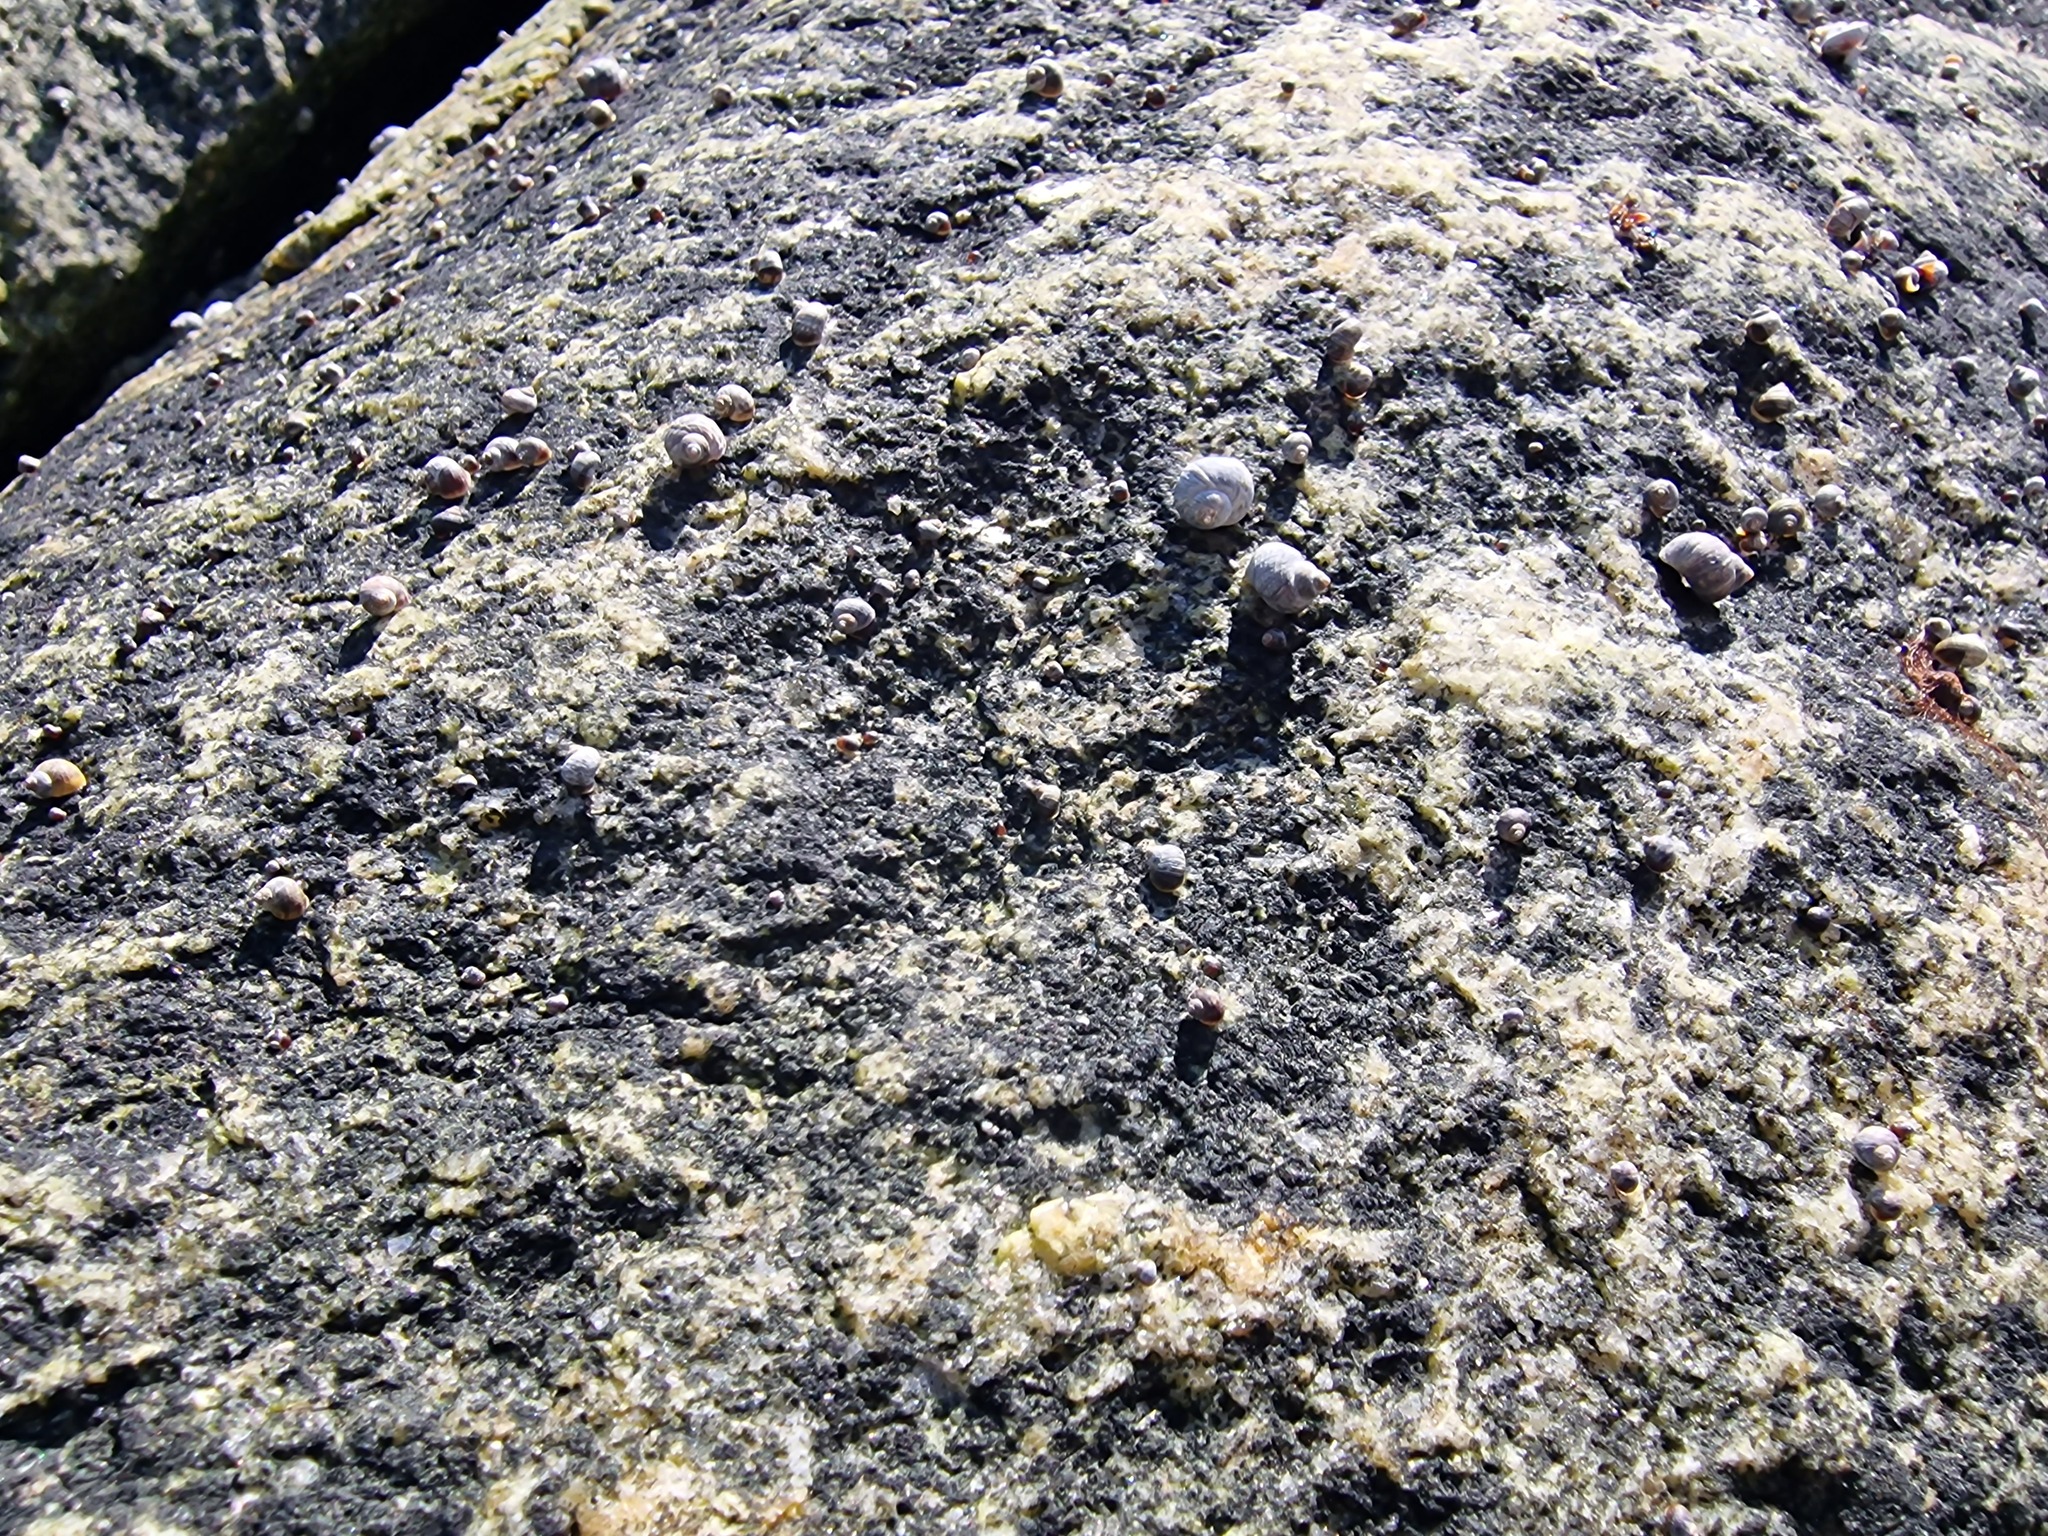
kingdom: Animalia
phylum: Mollusca
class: Gastropoda
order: Littorinimorpha
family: Littorinidae
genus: Littorina
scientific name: Littorina saxatilis
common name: Black-lined periwinkle
